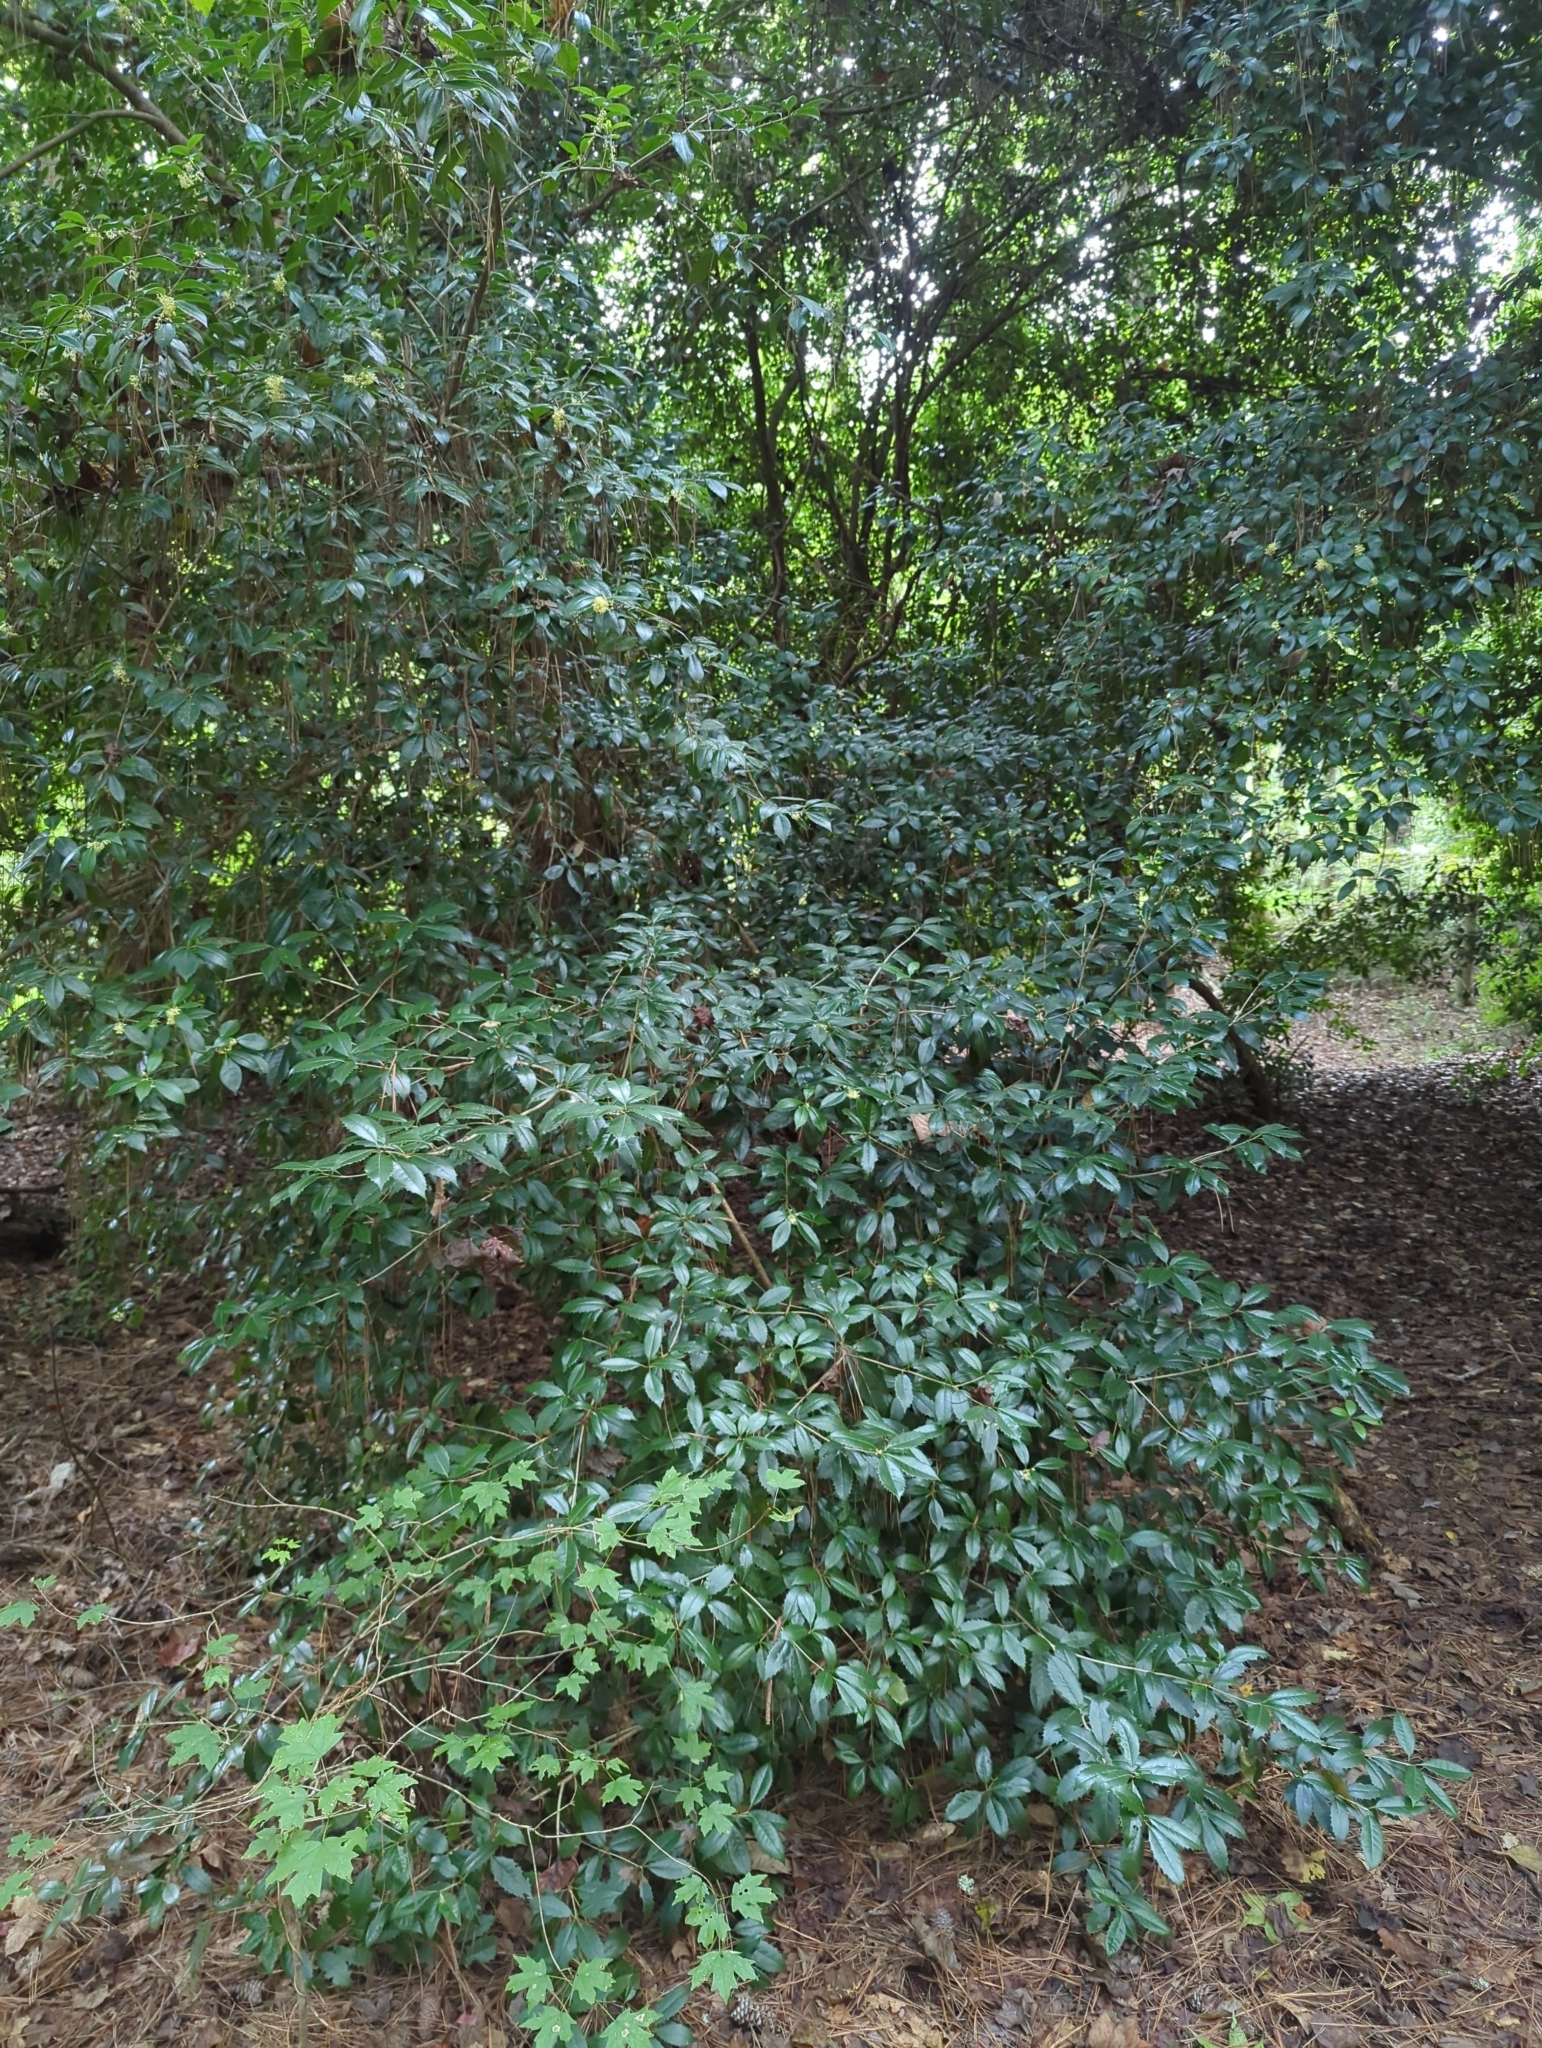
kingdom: Plantae
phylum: Tracheophyta
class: Magnoliopsida
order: Lamiales
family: Oleaceae
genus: Osmanthus
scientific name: Osmanthus fragrans
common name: Sweet osmanthus
